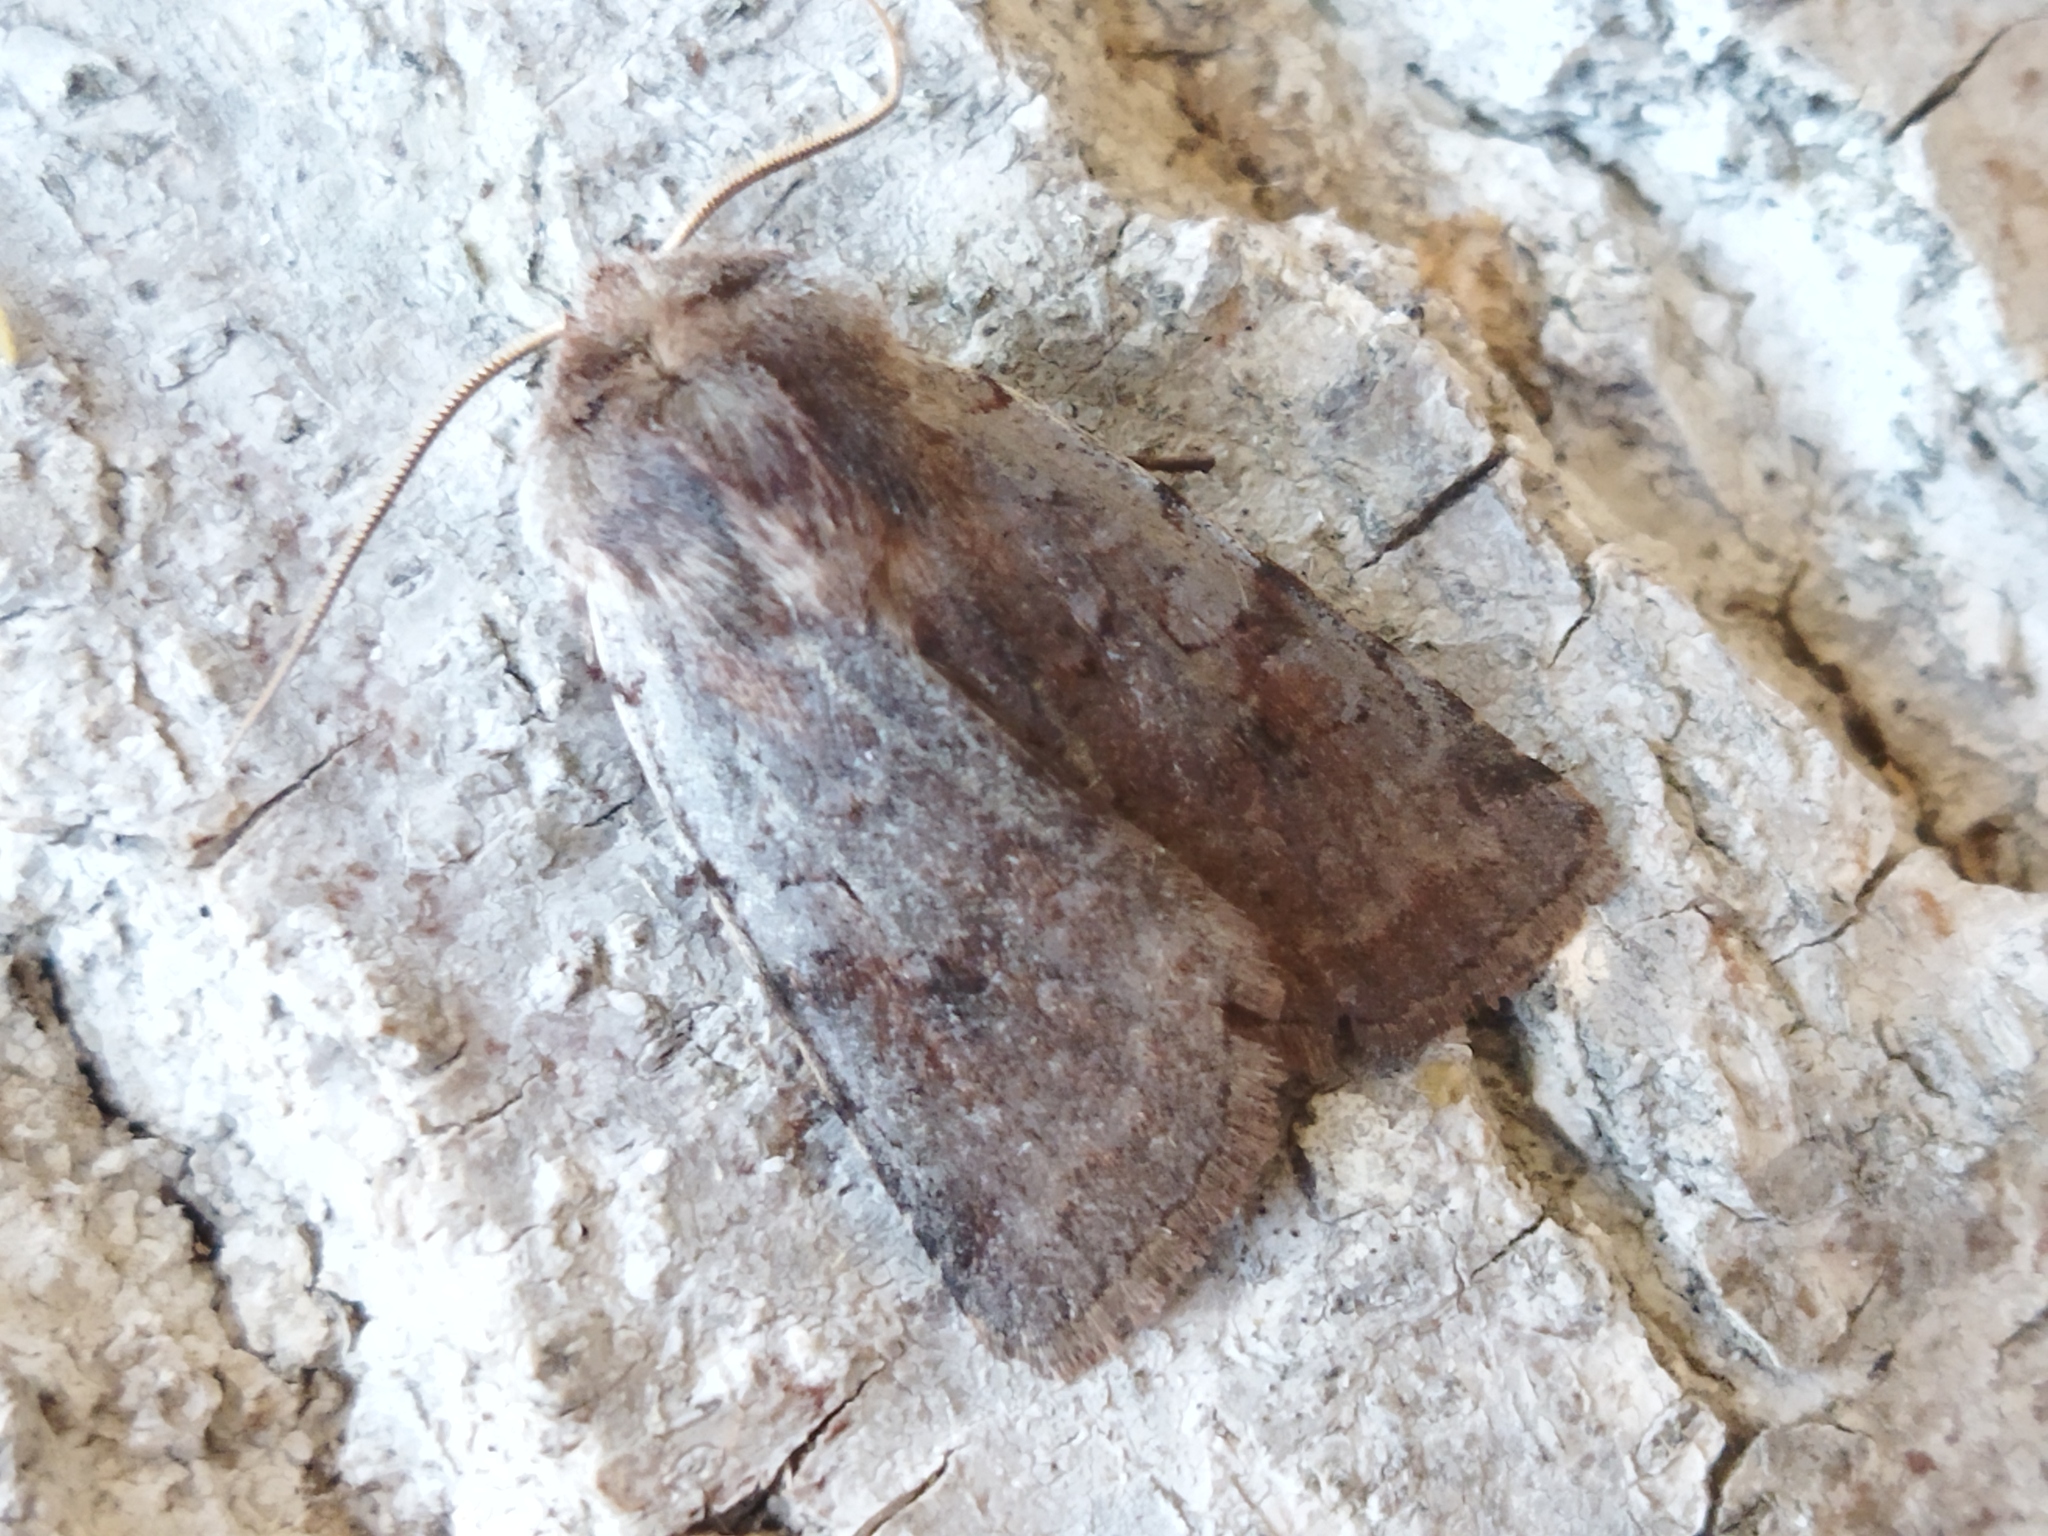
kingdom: Animalia
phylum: Arthropoda
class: Insecta
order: Lepidoptera
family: Noctuidae
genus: Cerastis
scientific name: Cerastis rubricosa
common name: Red chestnut
